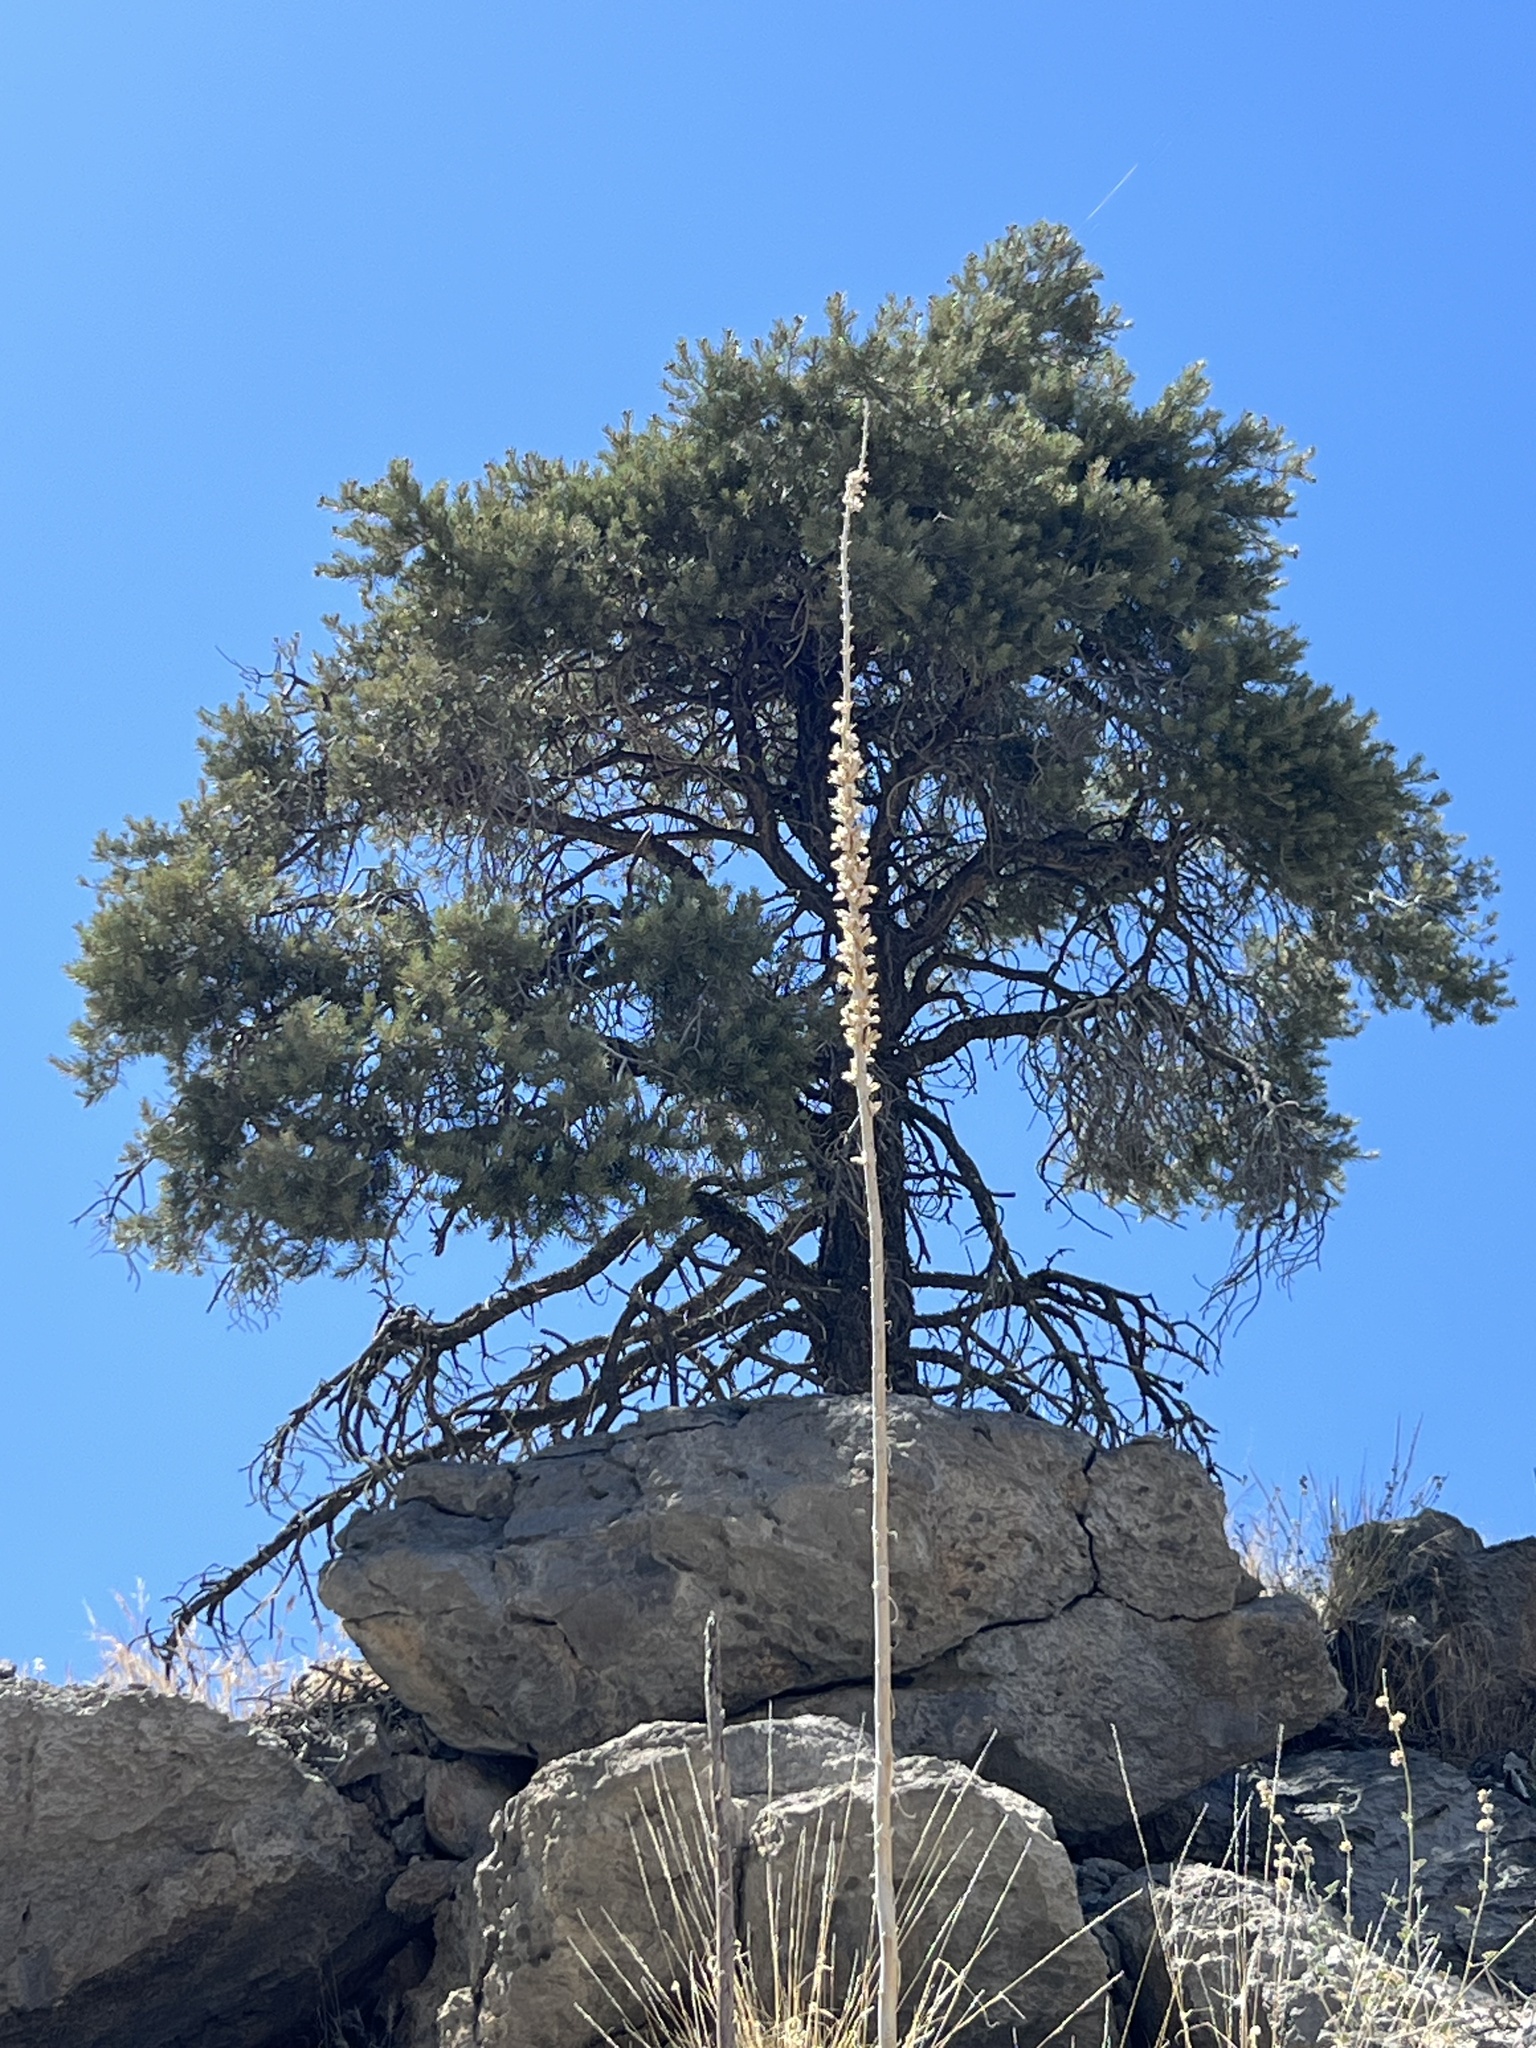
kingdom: Plantae
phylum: Tracheophyta
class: Liliopsida
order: Asparagales
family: Asparagaceae
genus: Agave
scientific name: Agave utahensis
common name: Utah agave
